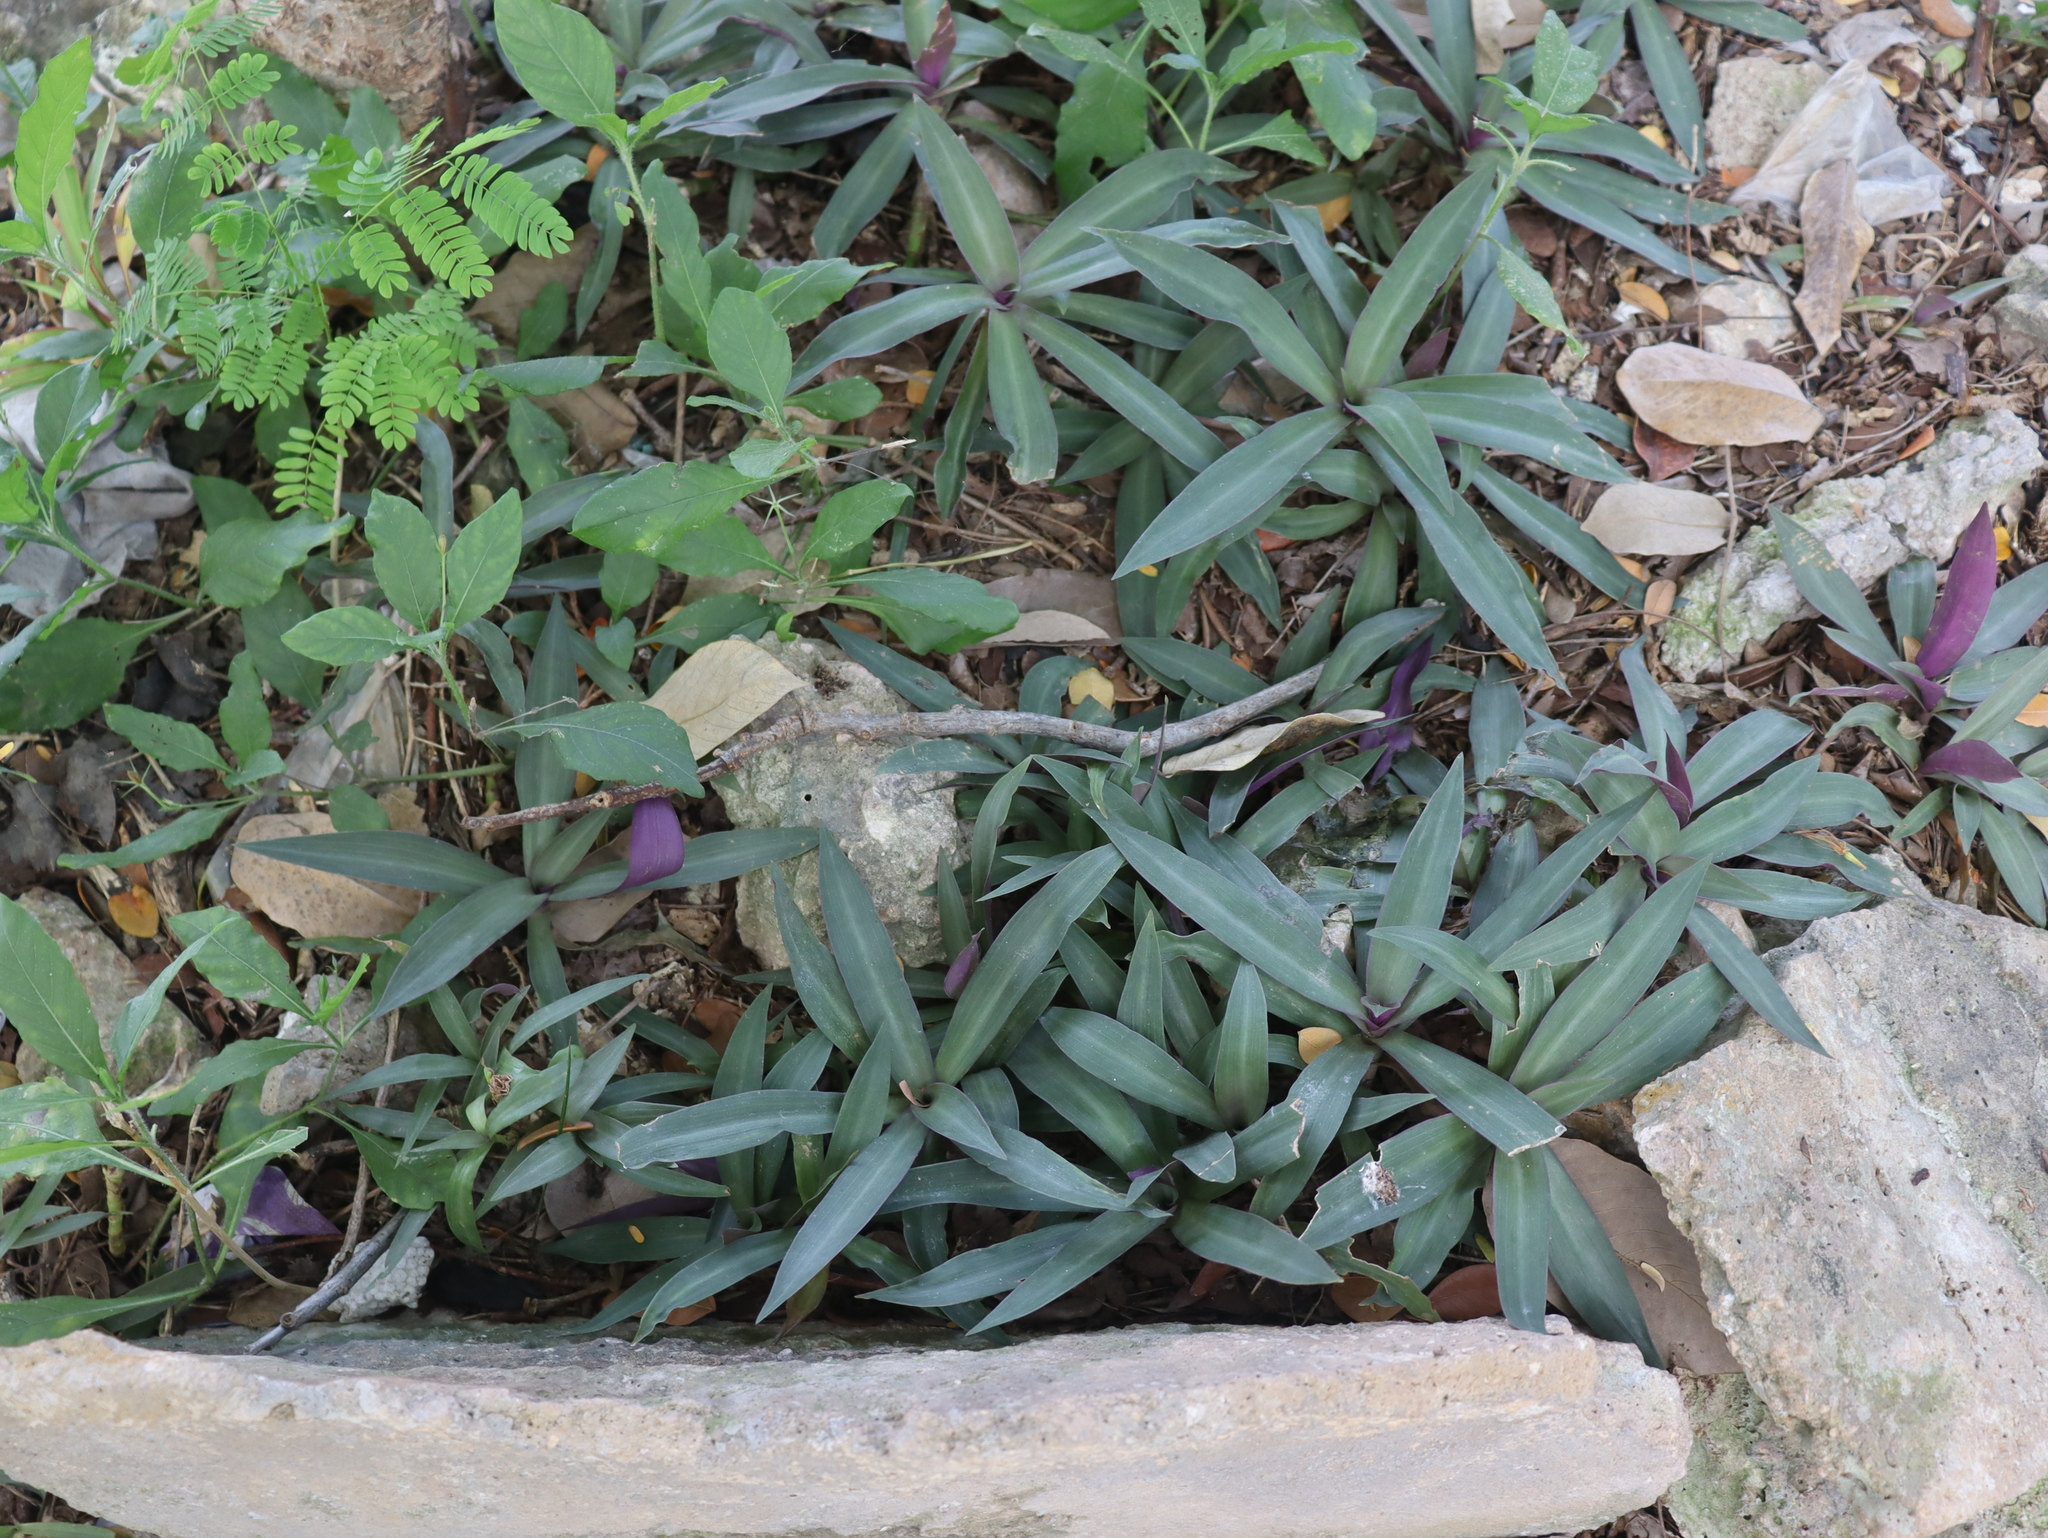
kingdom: Plantae
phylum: Tracheophyta
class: Liliopsida
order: Commelinales
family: Commelinaceae
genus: Tradescantia
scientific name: Tradescantia spathacea
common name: Boatlily
